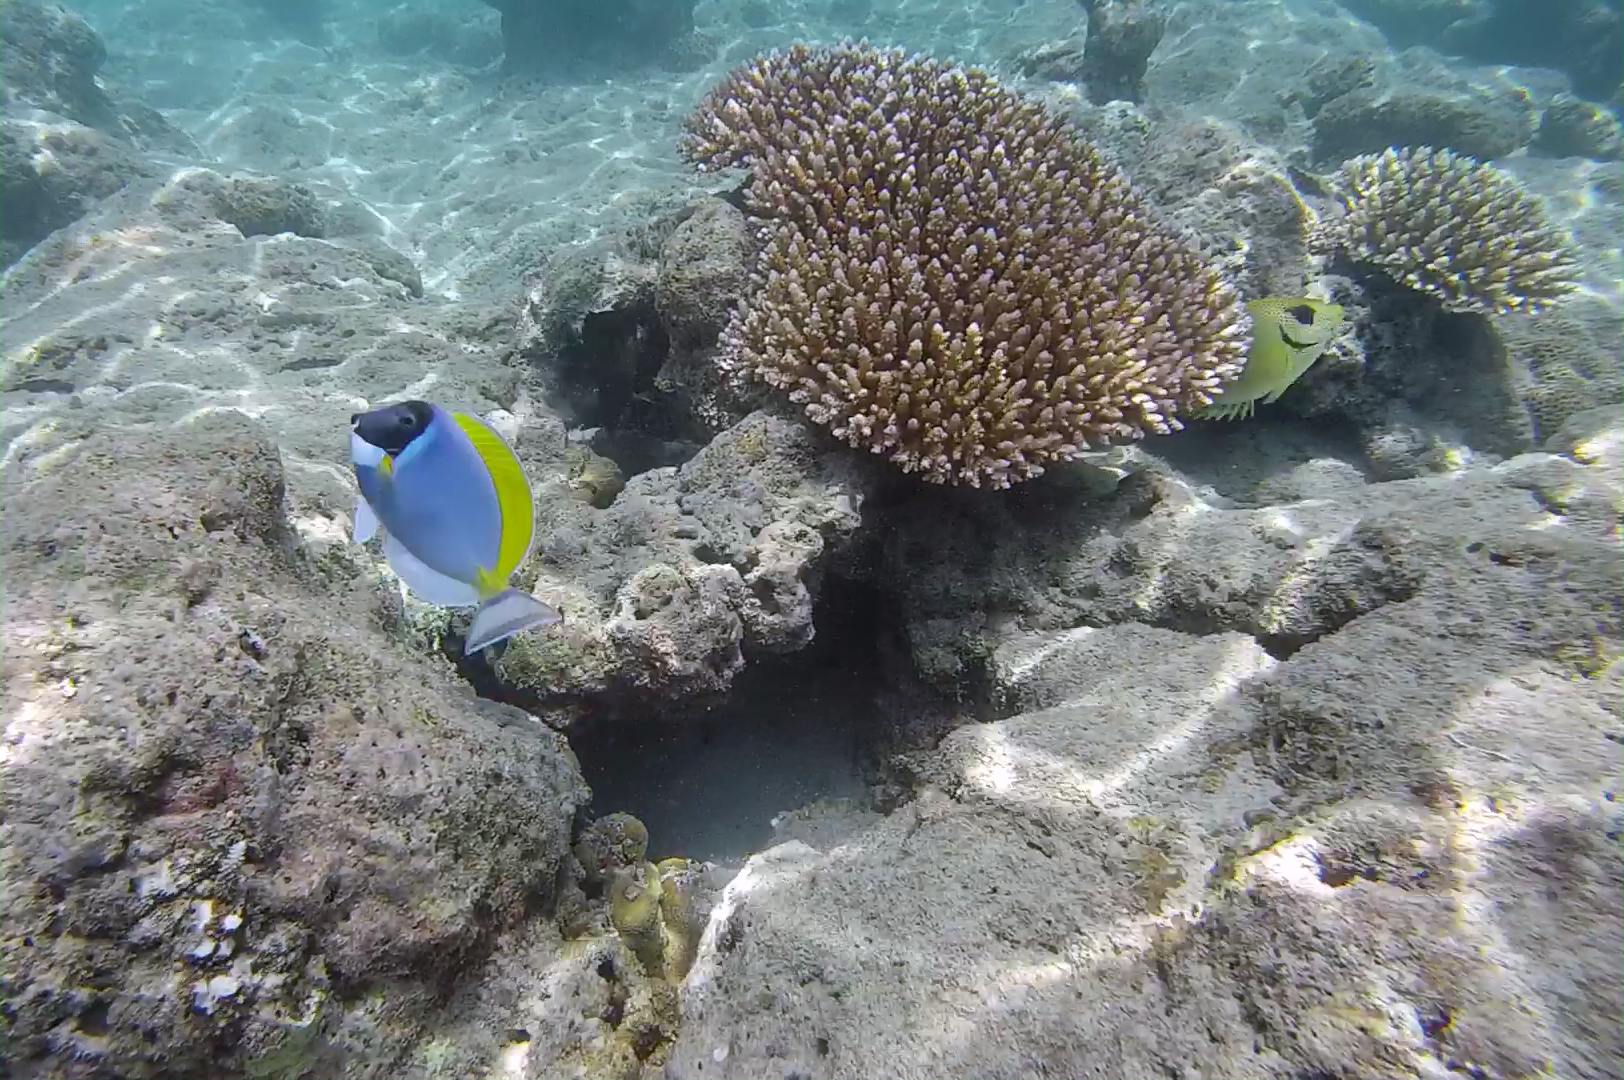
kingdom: Animalia
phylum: Chordata
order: Perciformes
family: Acanthuridae
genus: Acanthurus
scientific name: Acanthurus leucosternon
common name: Blue surgeonfish
